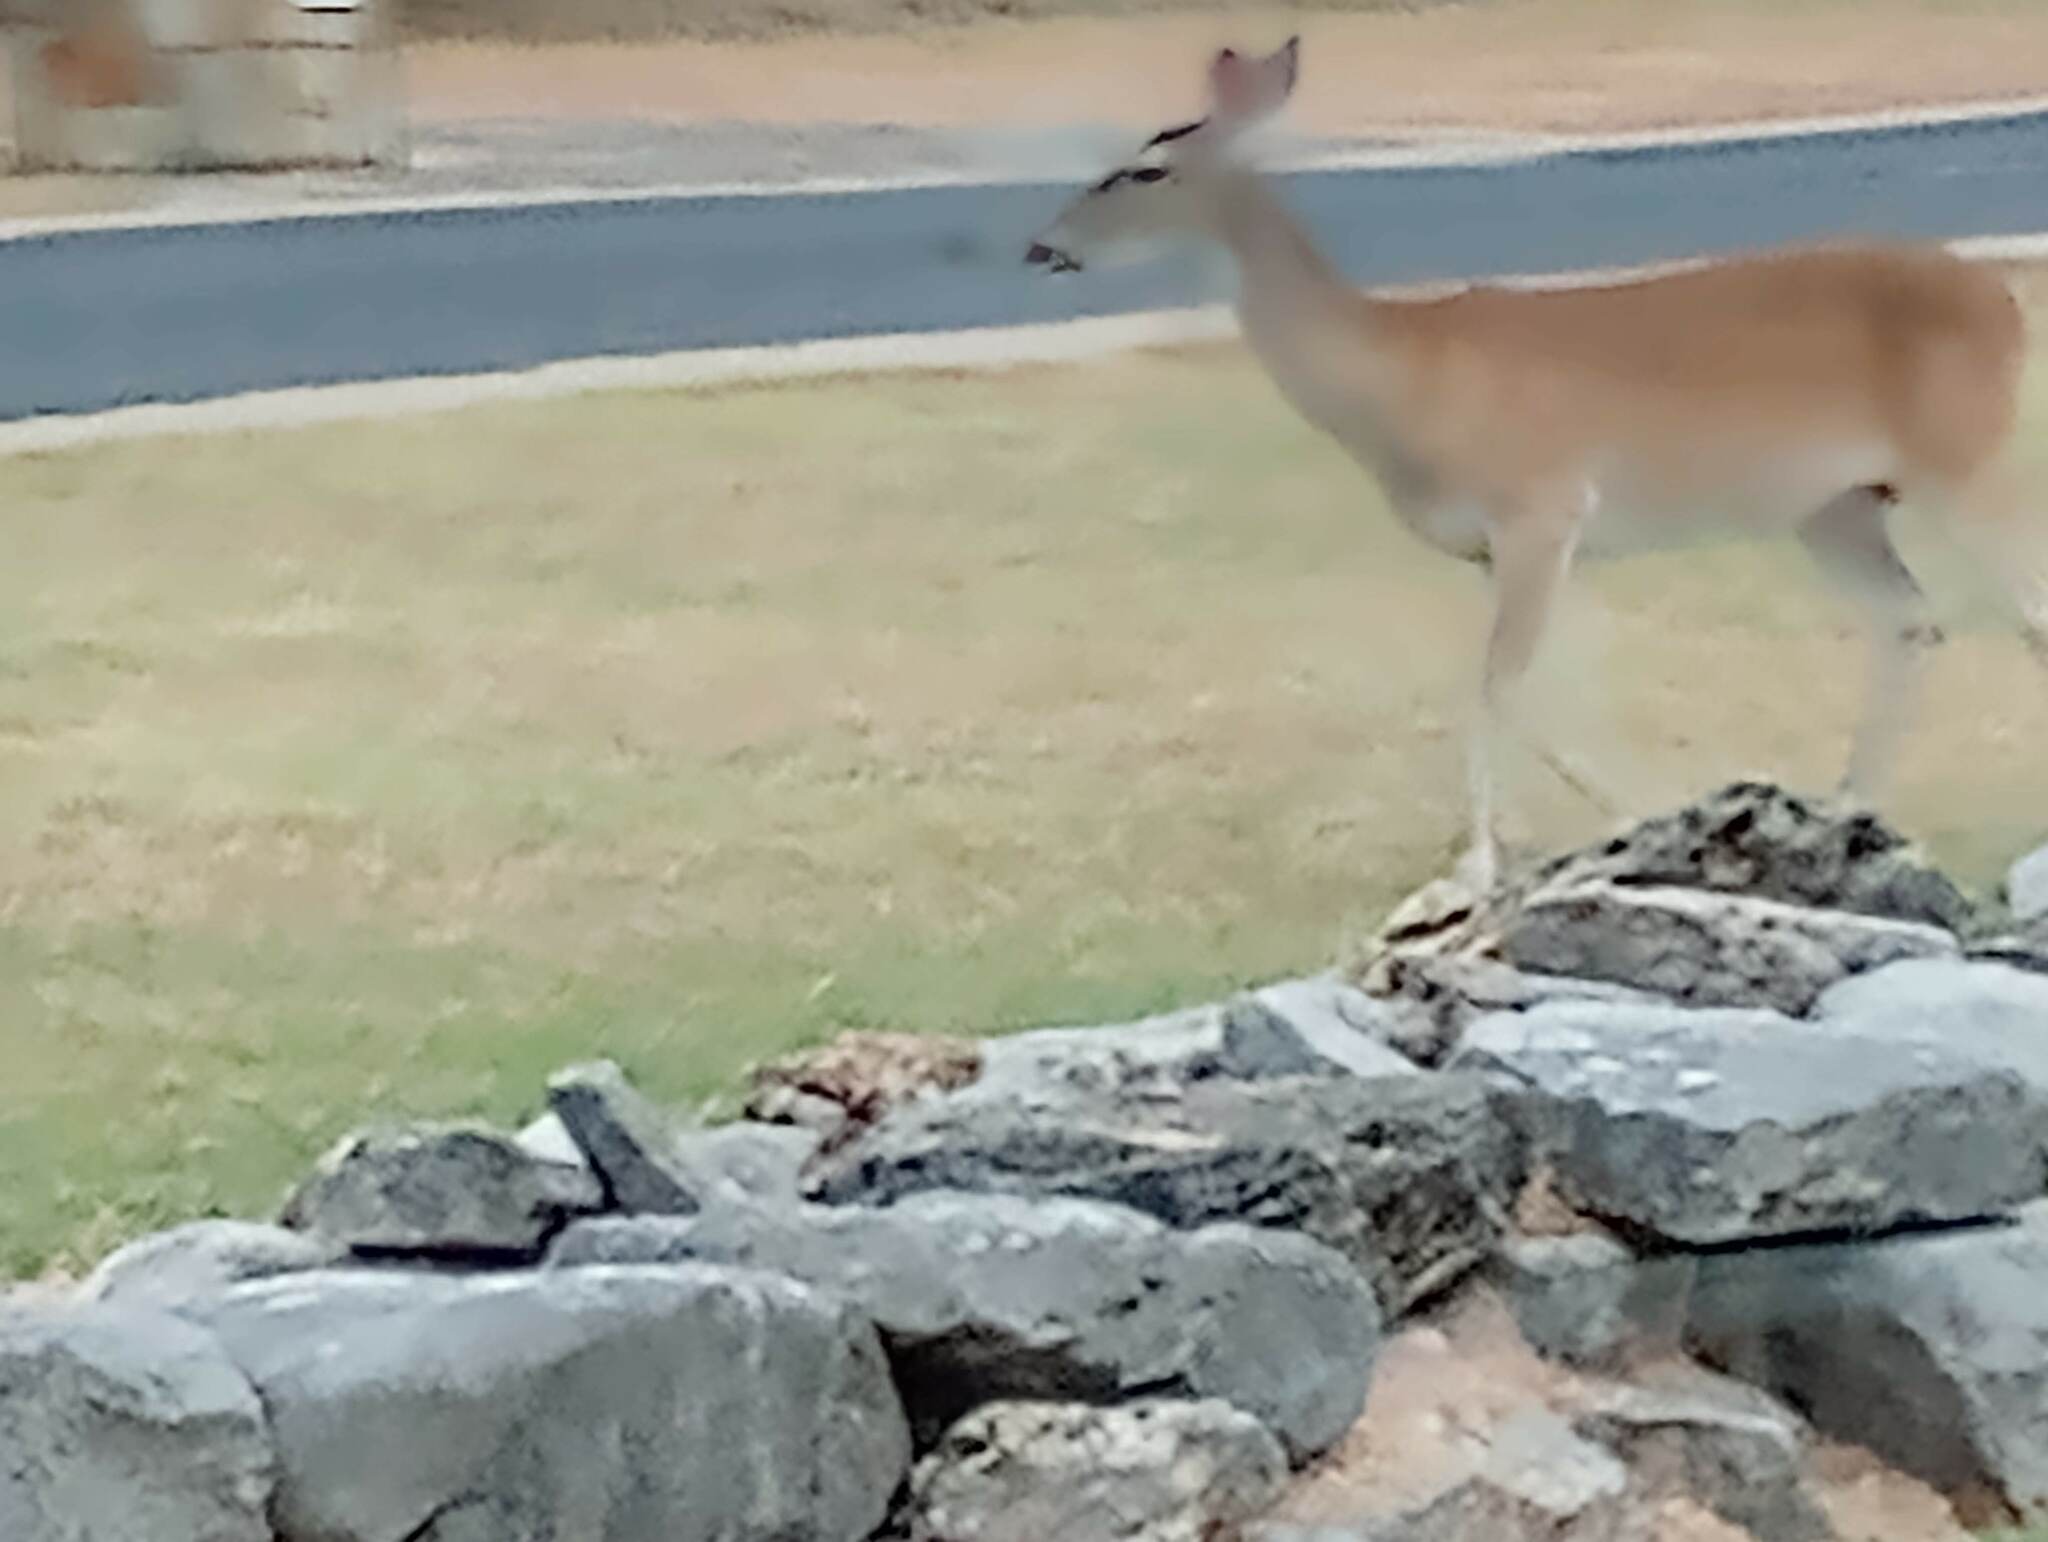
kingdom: Animalia
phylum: Chordata
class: Mammalia
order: Artiodactyla
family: Cervidae
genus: Odocoileus
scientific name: Odocoileus virginianus
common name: White-tailed deer
